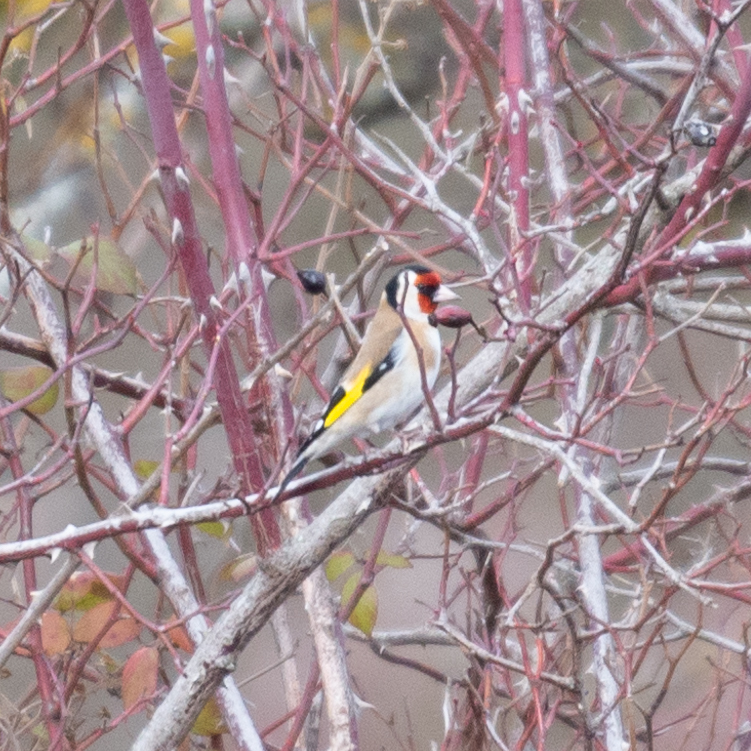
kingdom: Animalia
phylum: Chordata
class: Aves
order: Passeriformes
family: Fringillidae
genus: Carduelis
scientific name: Carduelis carduelis
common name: European goldfinch
